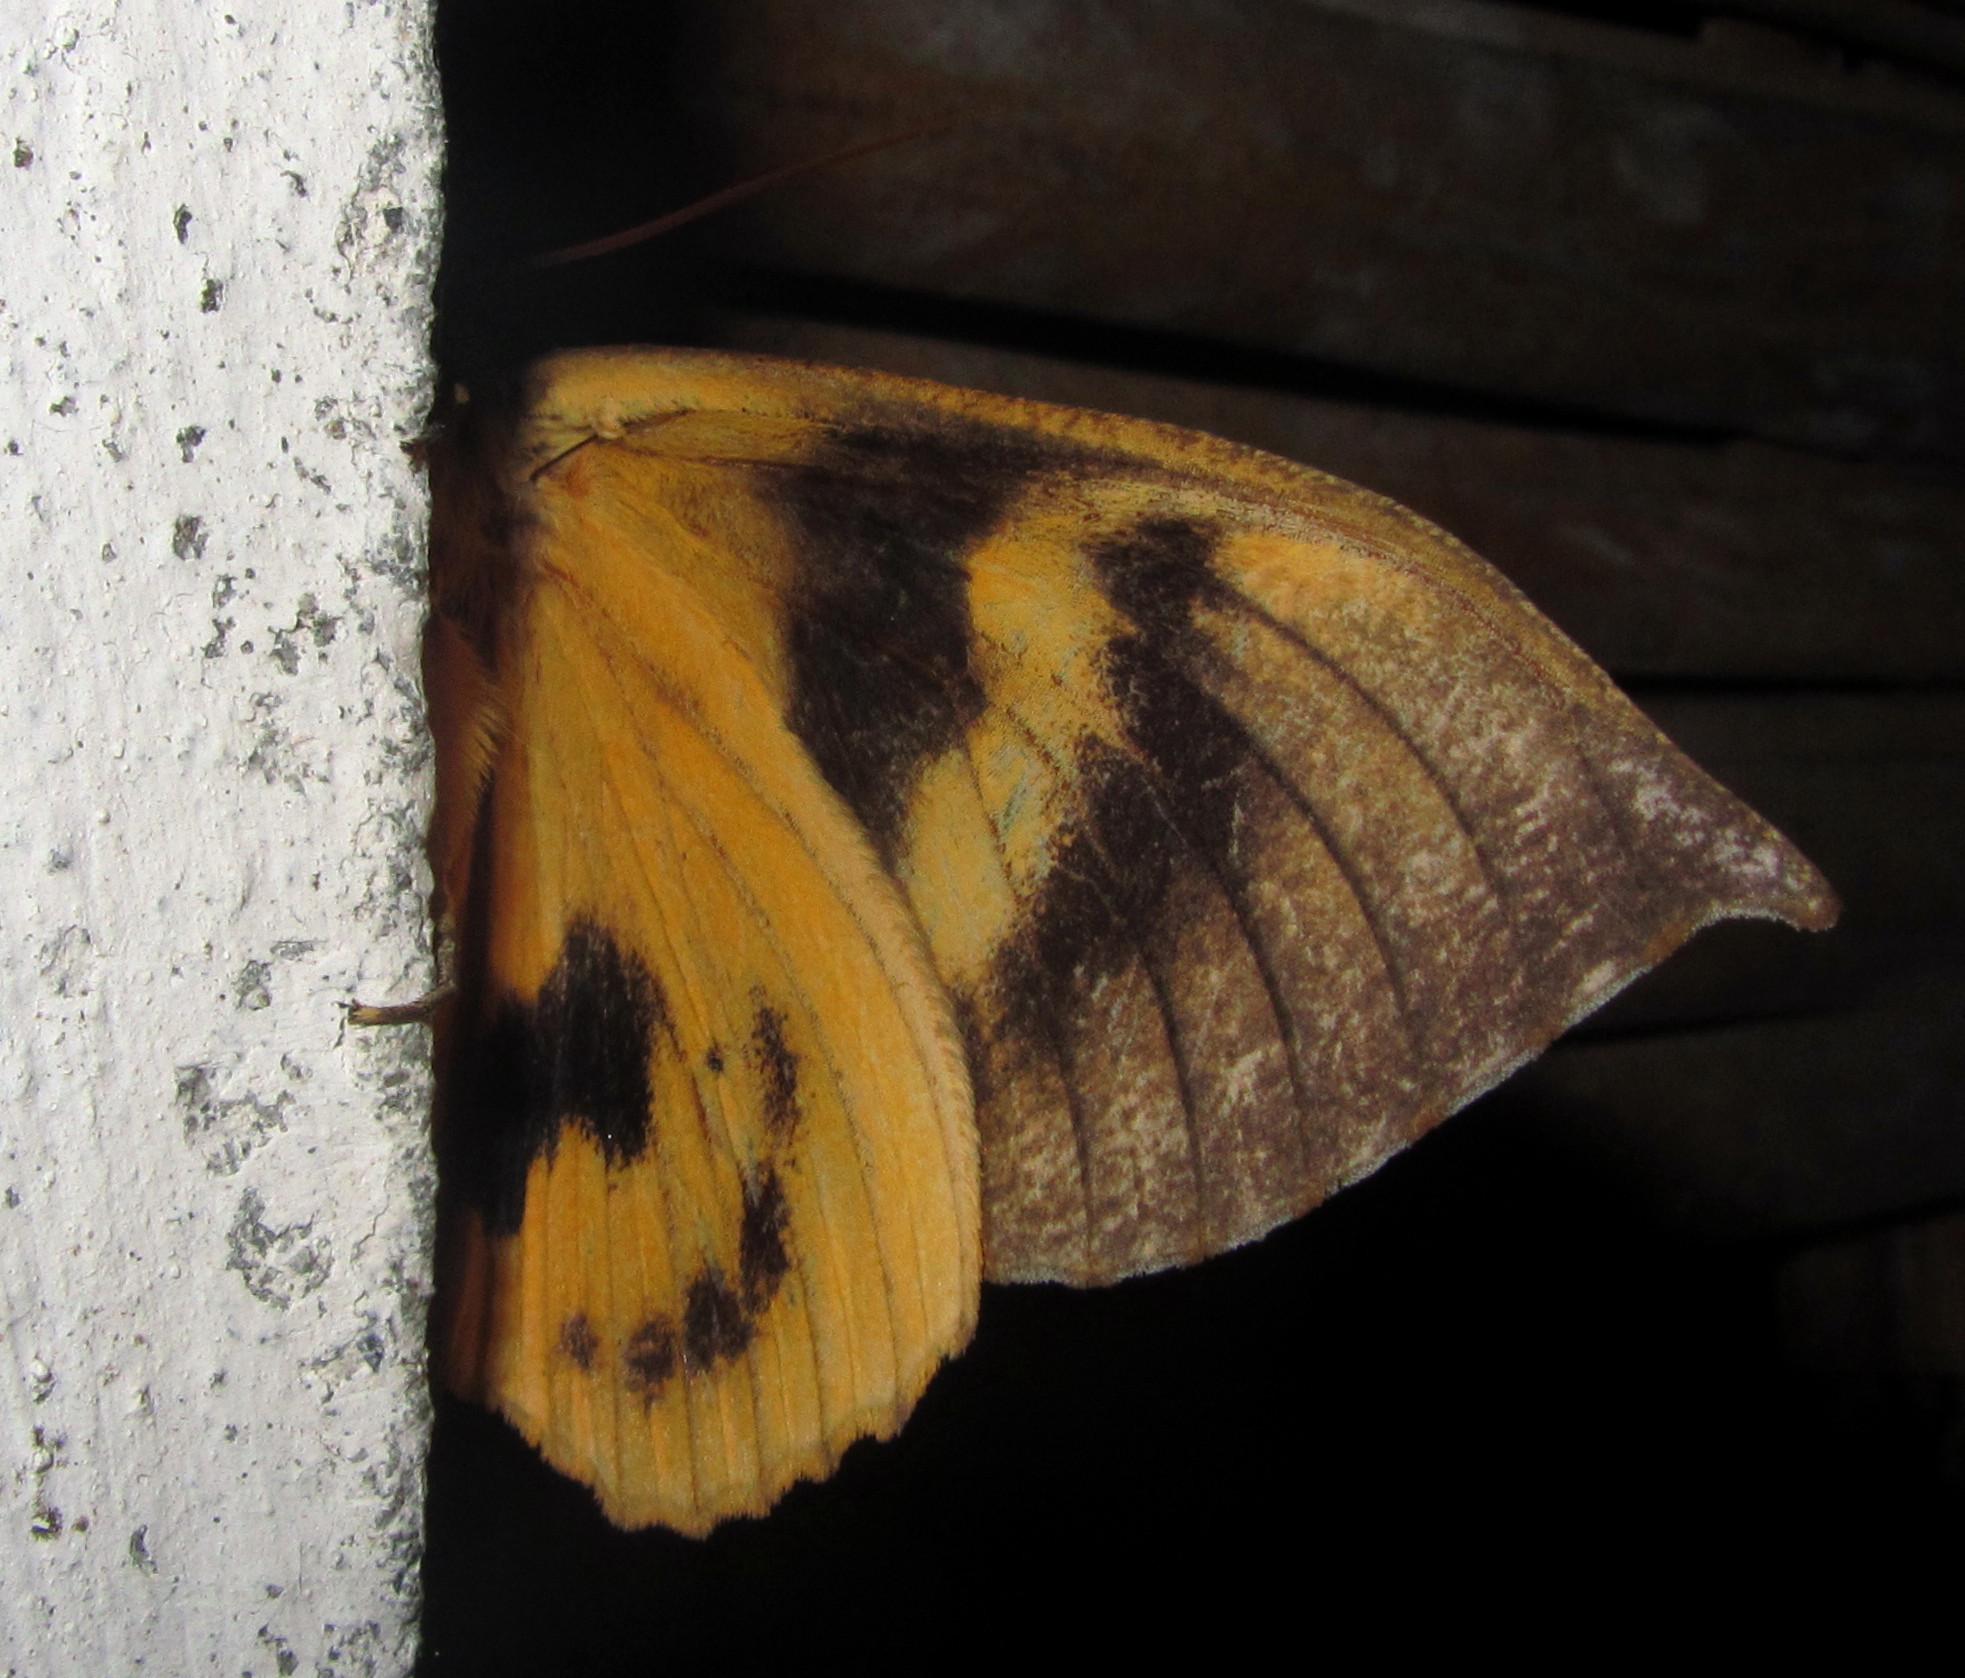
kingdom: Animalia
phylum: Arthropoda
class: Insecta
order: Lepidoptera
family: Erebidae
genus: Eudocima
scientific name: Eudocima sikhimensis
